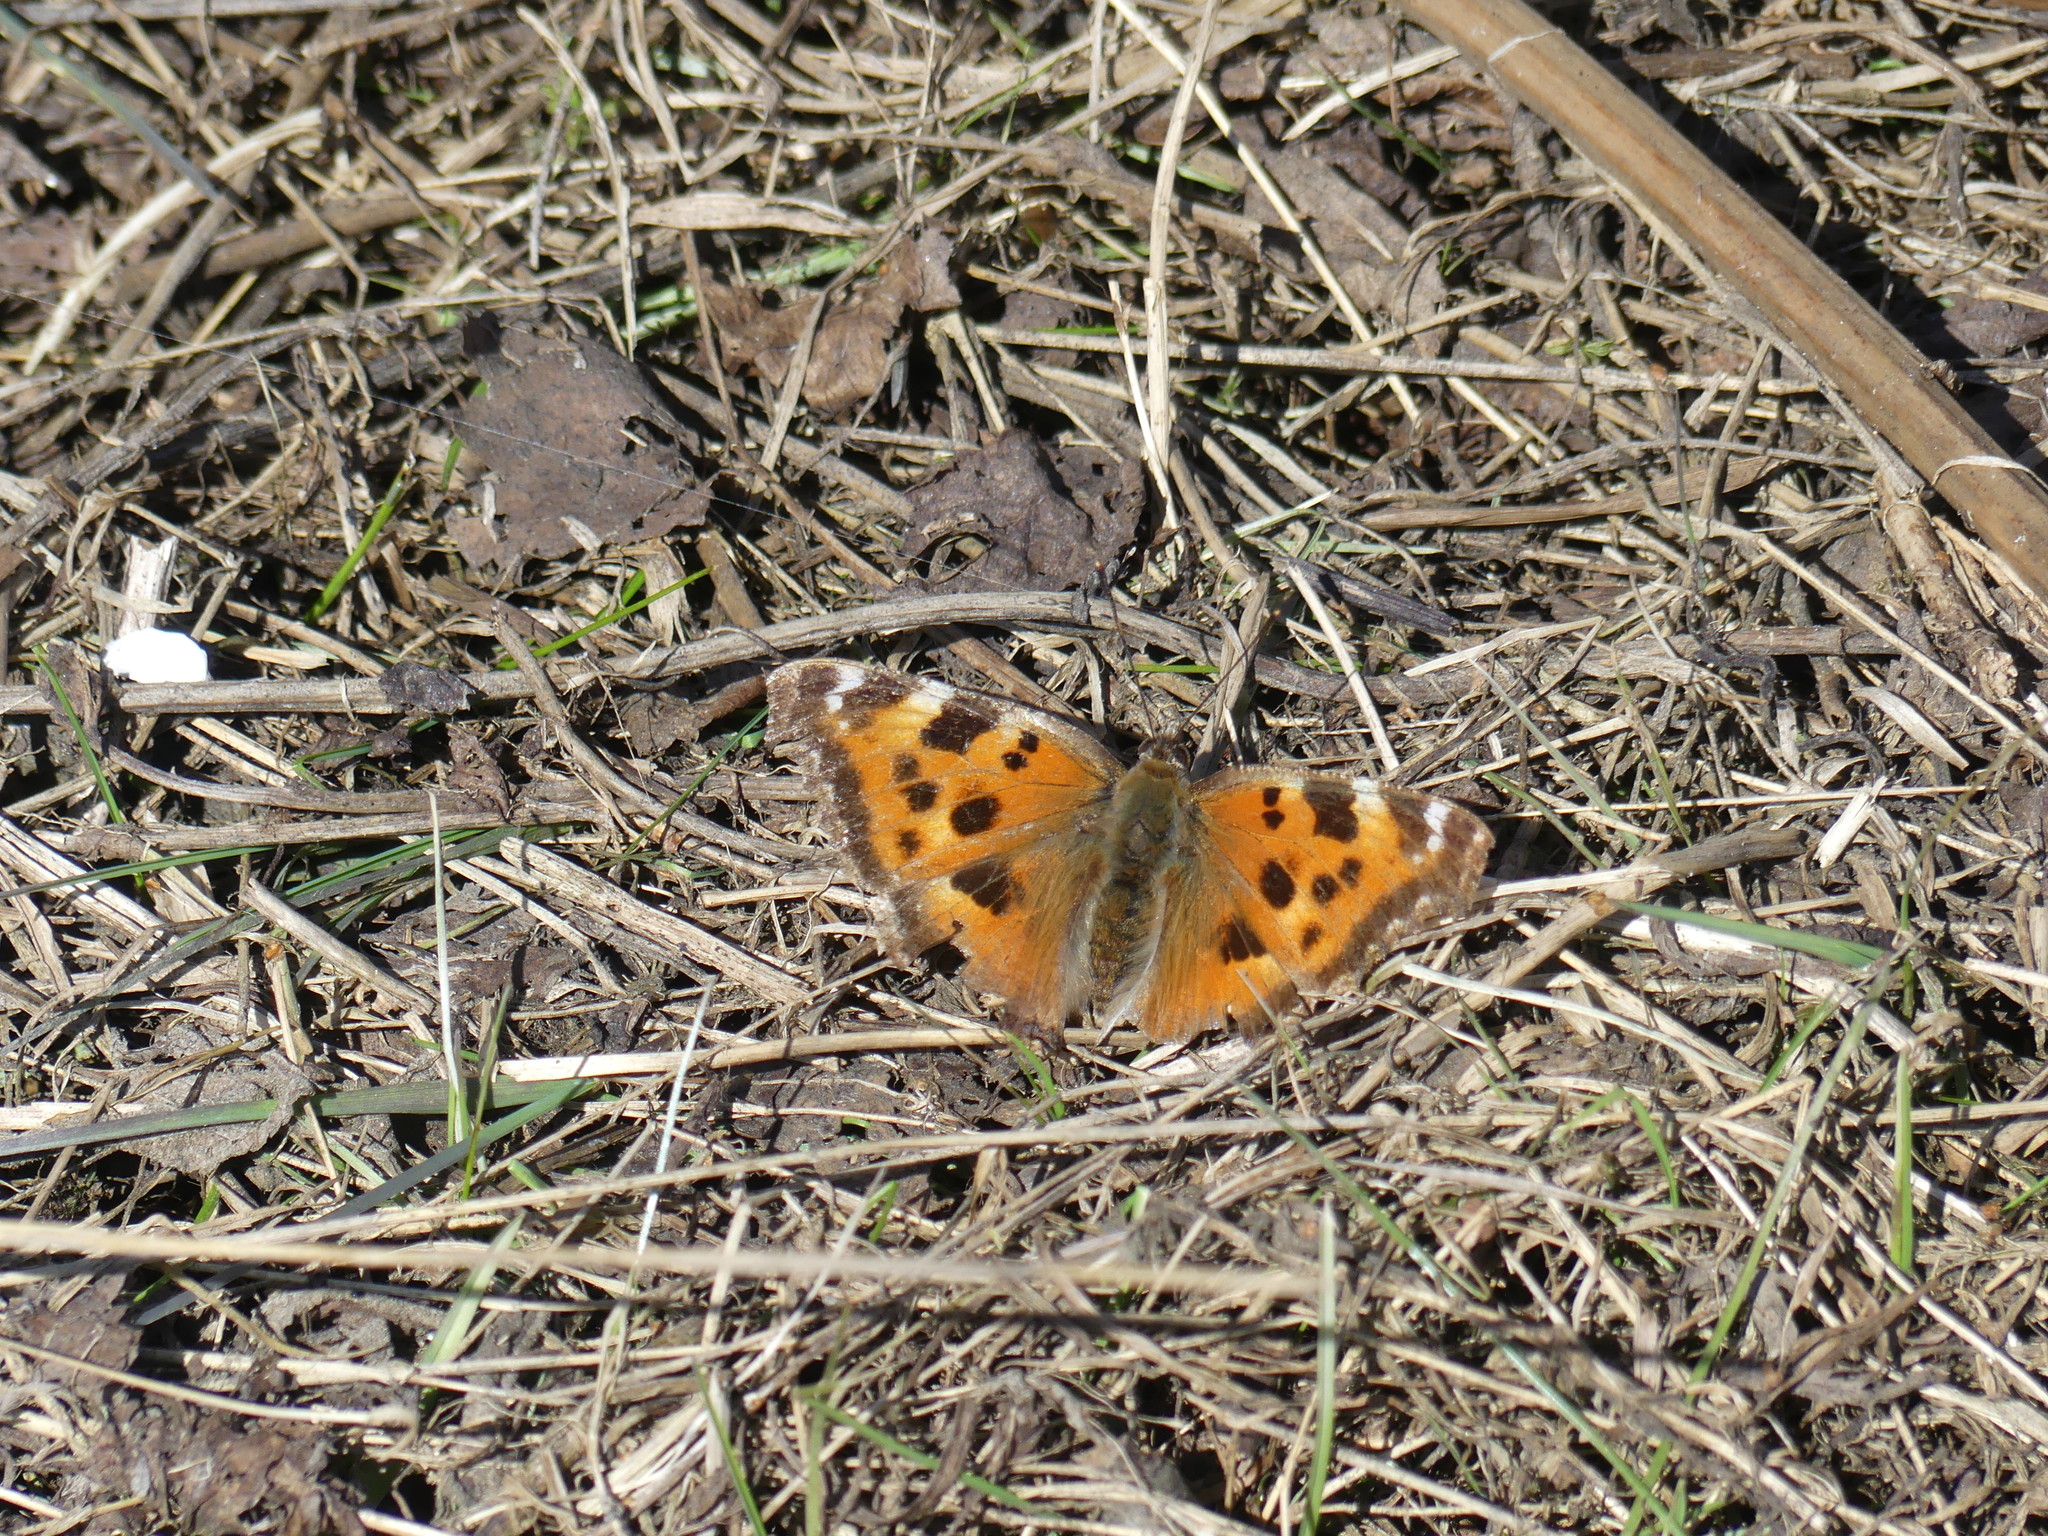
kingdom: Animalia
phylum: Arthropoda
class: Insecta
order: Lepidoptera
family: Nymphalidae
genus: Nymphalis
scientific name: Nymphalis xanthomelas
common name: Scarce tortoiseshell
